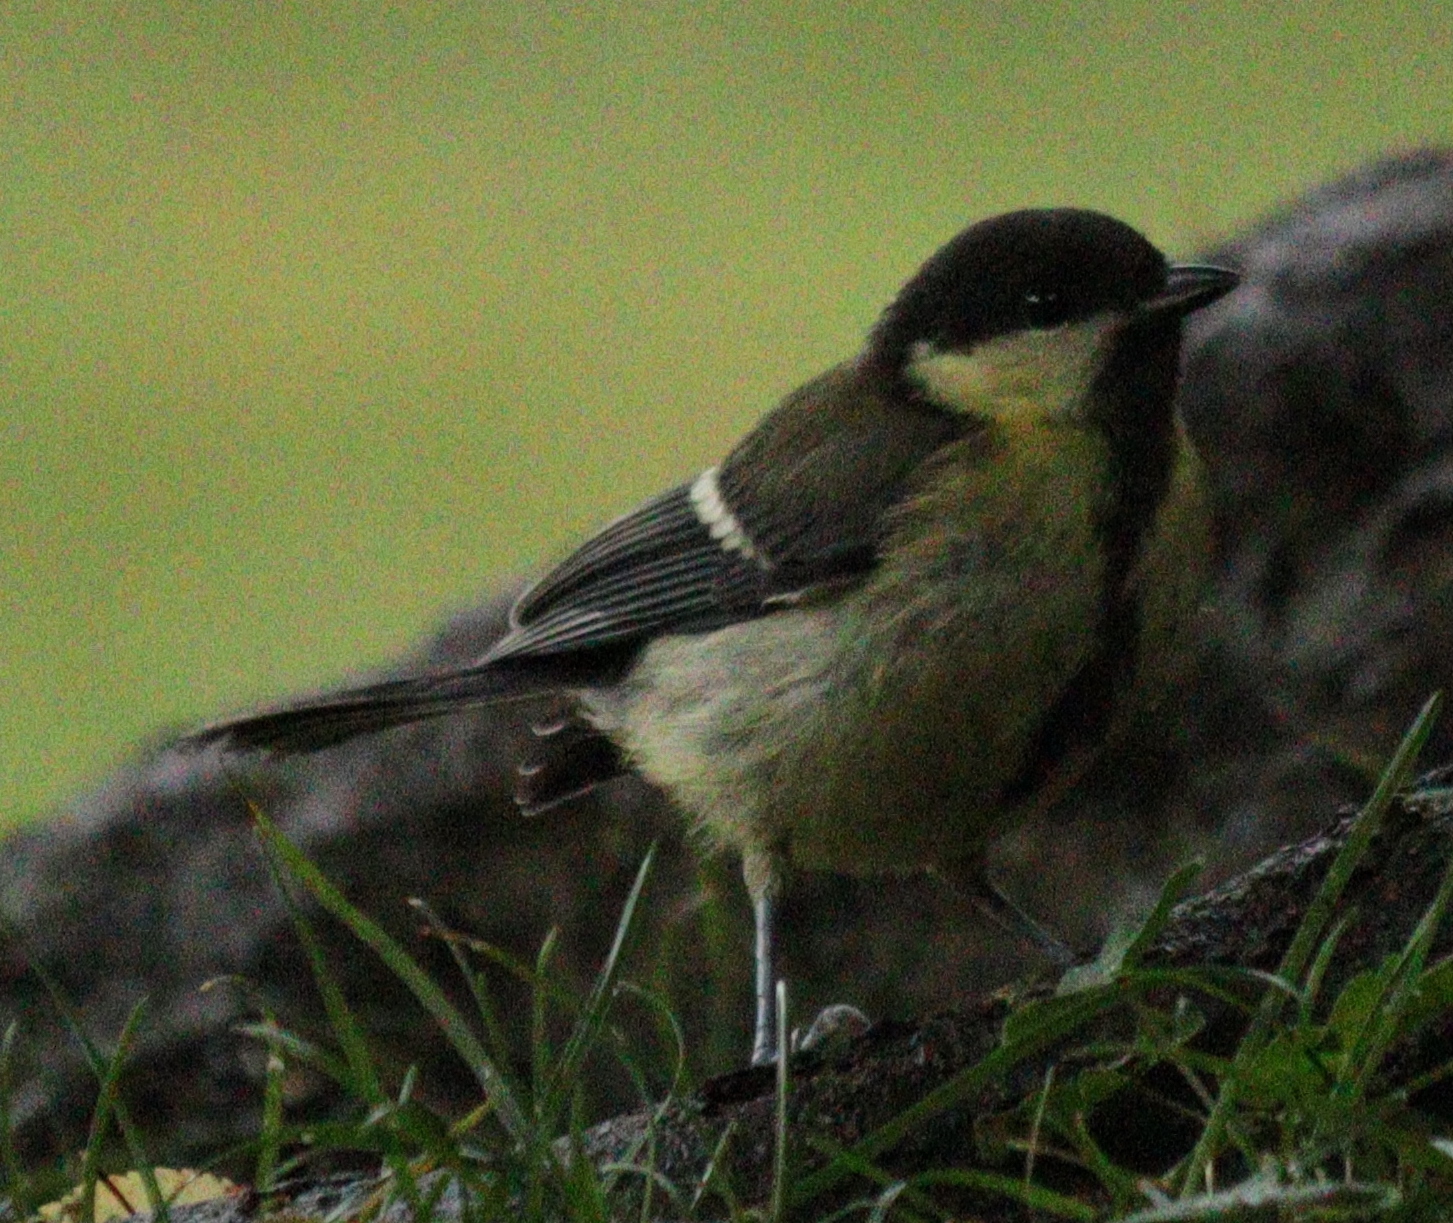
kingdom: Animalia
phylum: Chordata
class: Aves
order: Passeriformes
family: Paridae
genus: Parus
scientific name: Parus major
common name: Great tit
